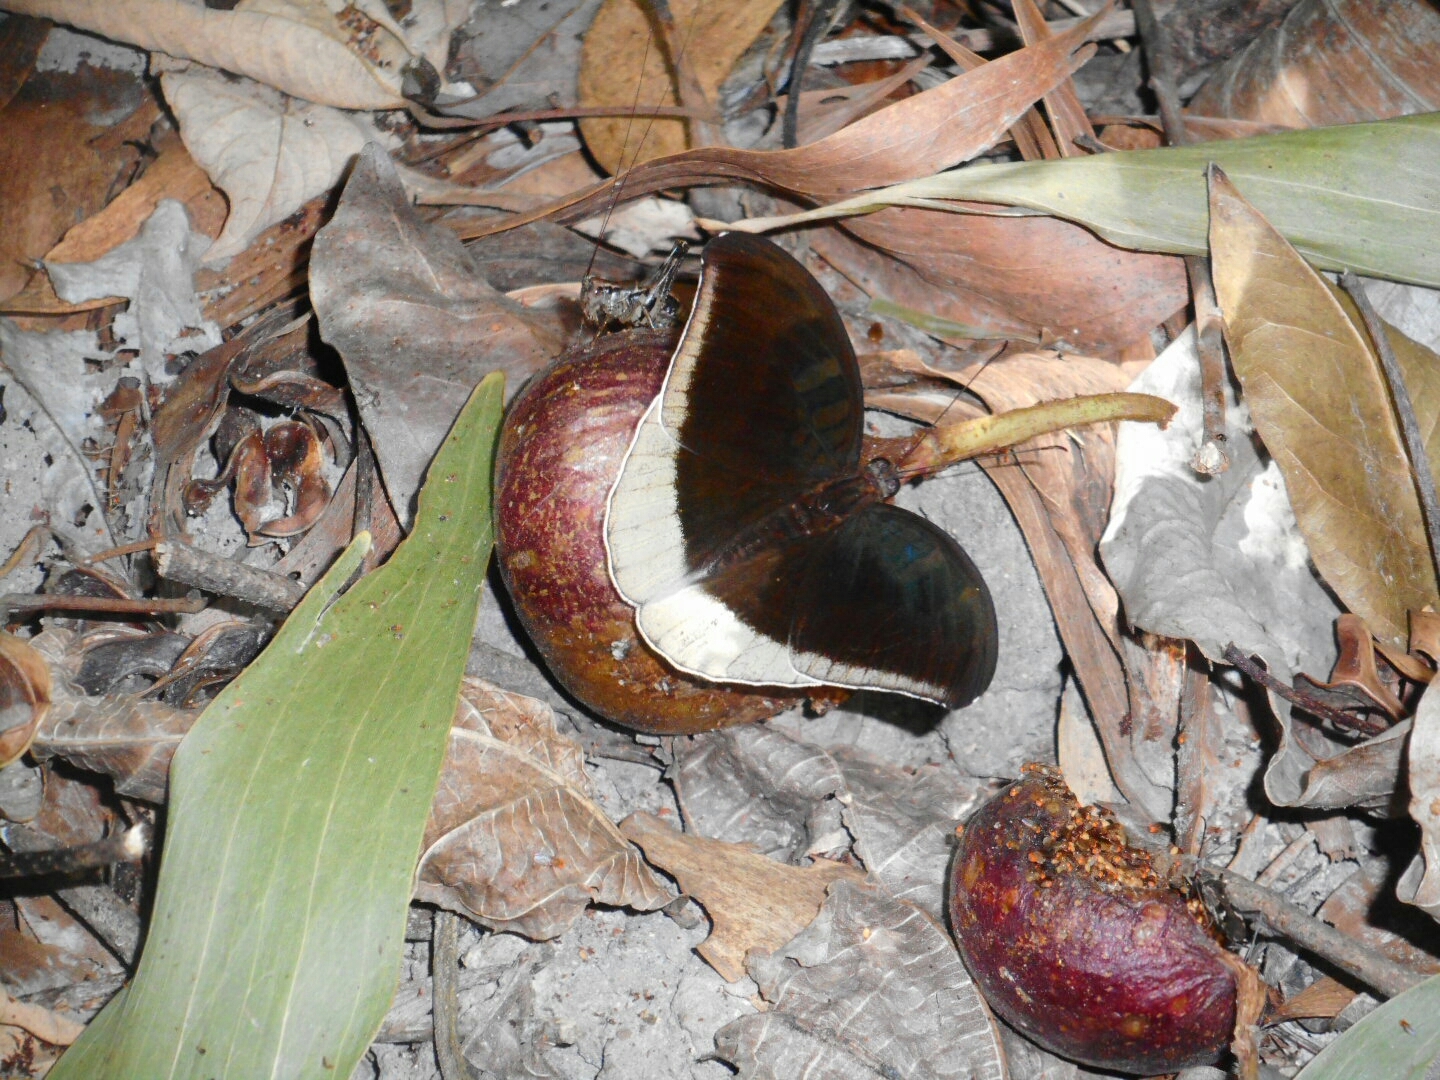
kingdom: Animalia
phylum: Arthropoda
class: Insecta
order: Lepidoptera
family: Nymphalidae
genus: Tanaecia
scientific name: Tanaecia lepidea
